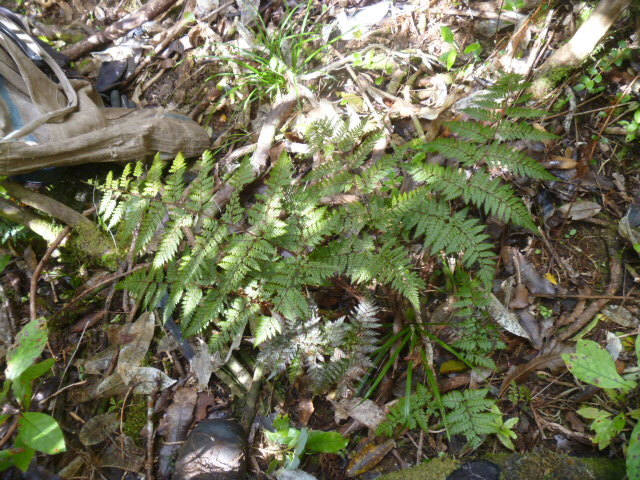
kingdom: Plantae
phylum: Tracheophyta
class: Polypodiopsida
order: Polypodiales
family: Dryopteridaceae
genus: Lastreopsis
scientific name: Lastreopsis hispida
